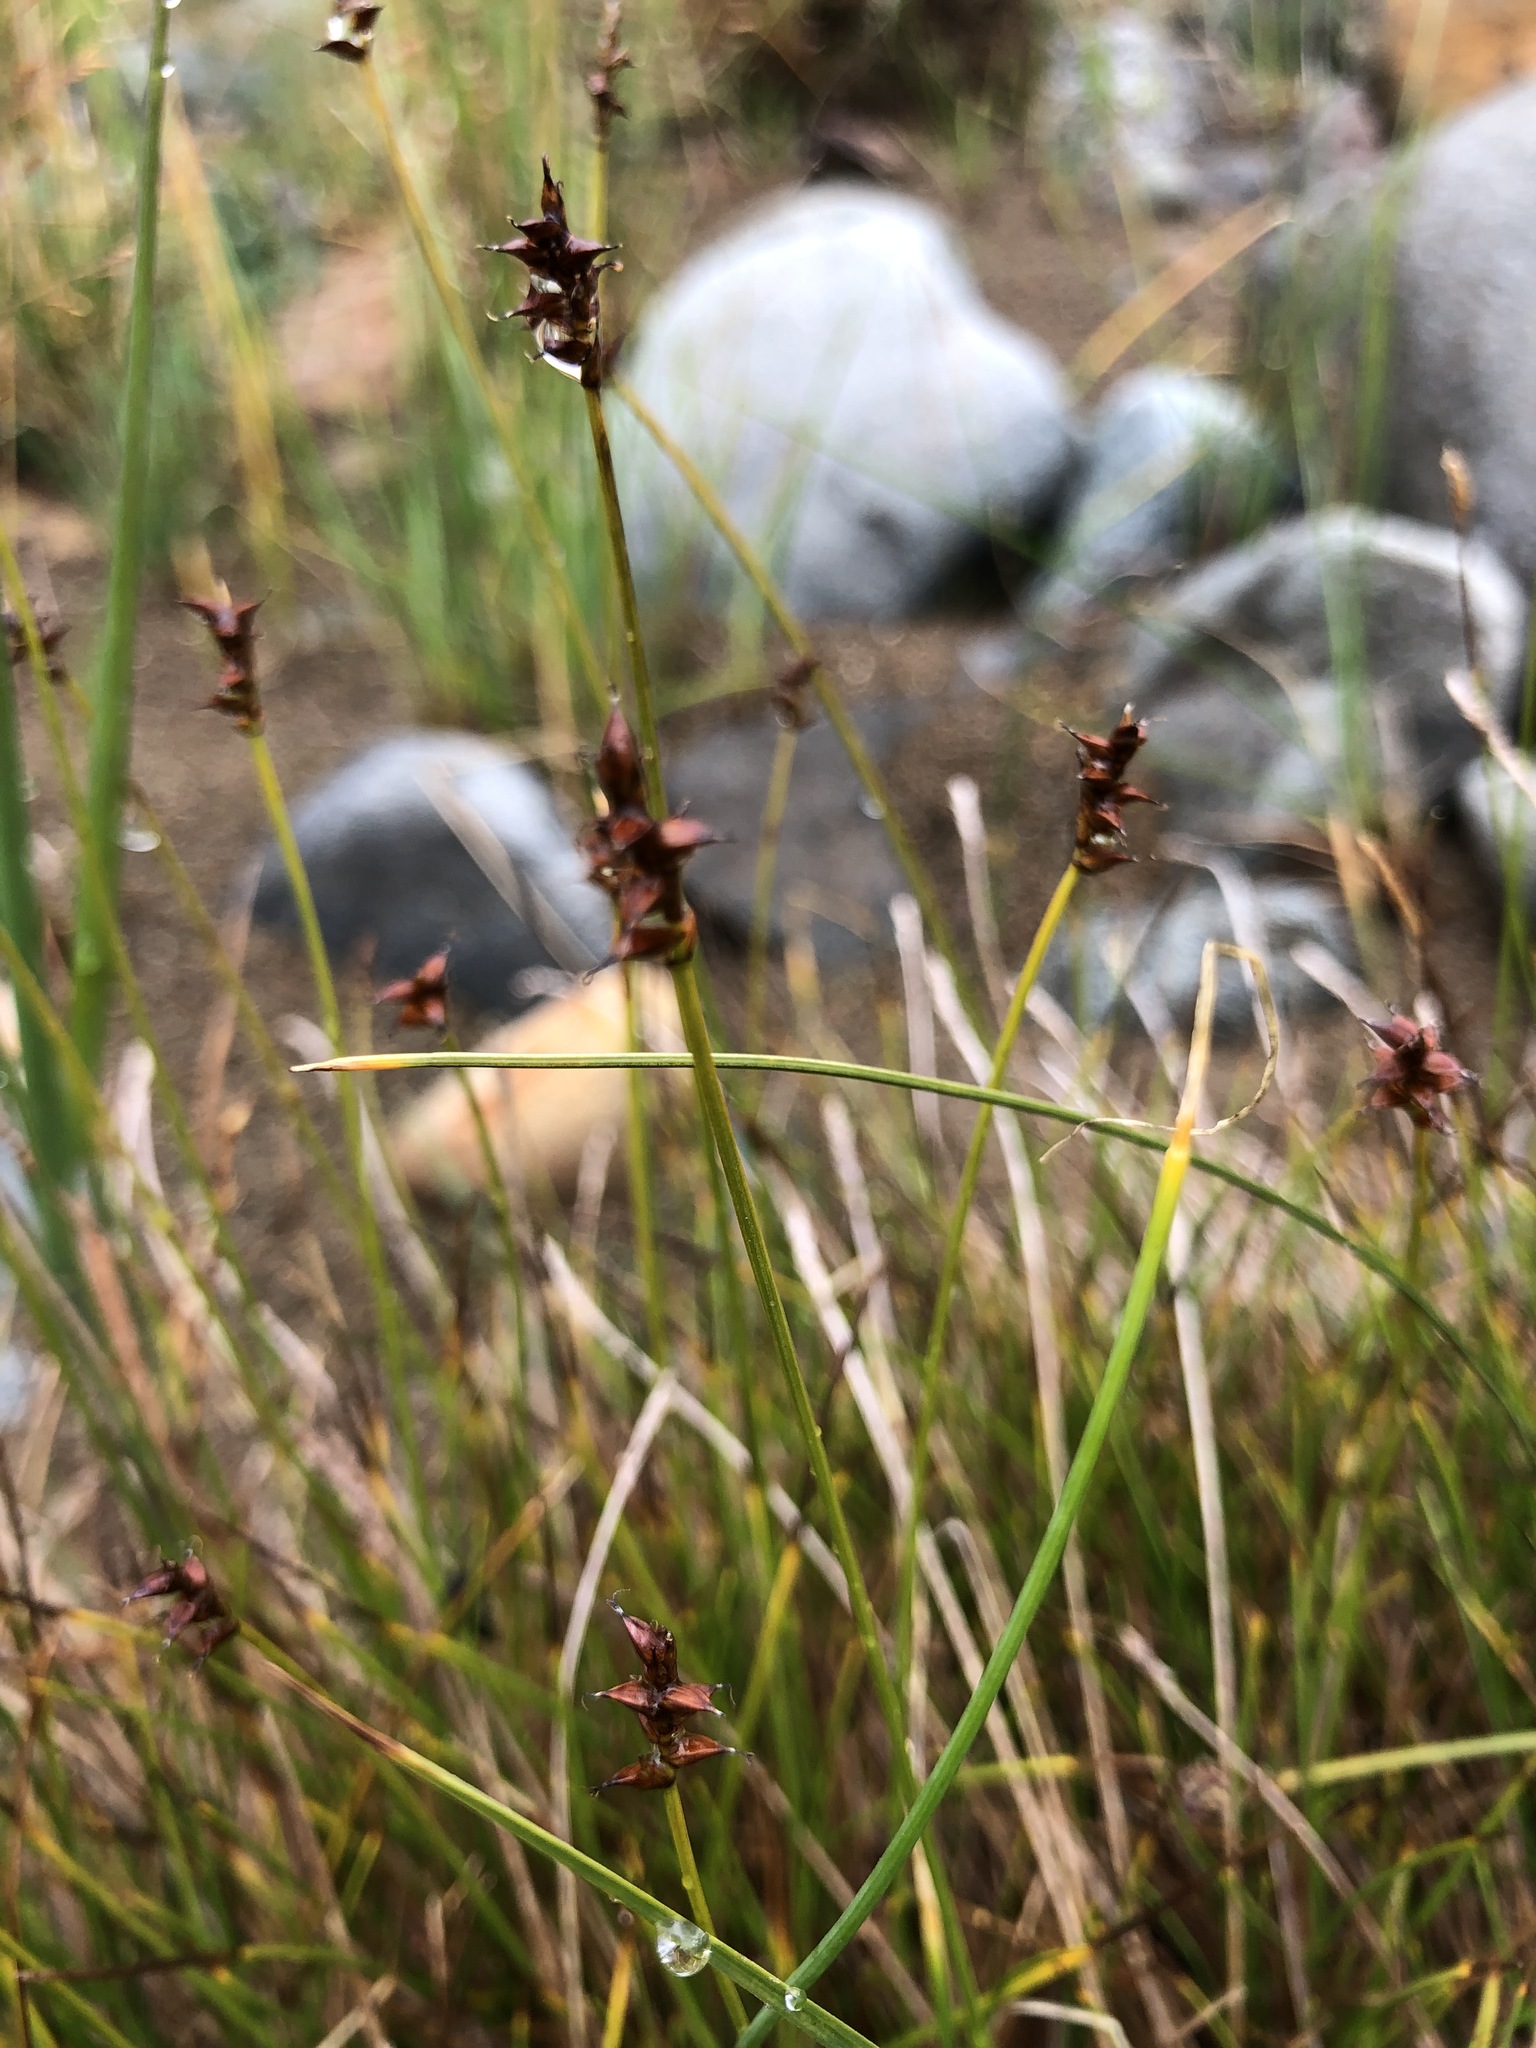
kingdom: Plantae
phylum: Tracheophyta
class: Liliopsida
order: Poales
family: Cyperaceae
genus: Carex
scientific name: Carex parallela
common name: Parallel sedge
